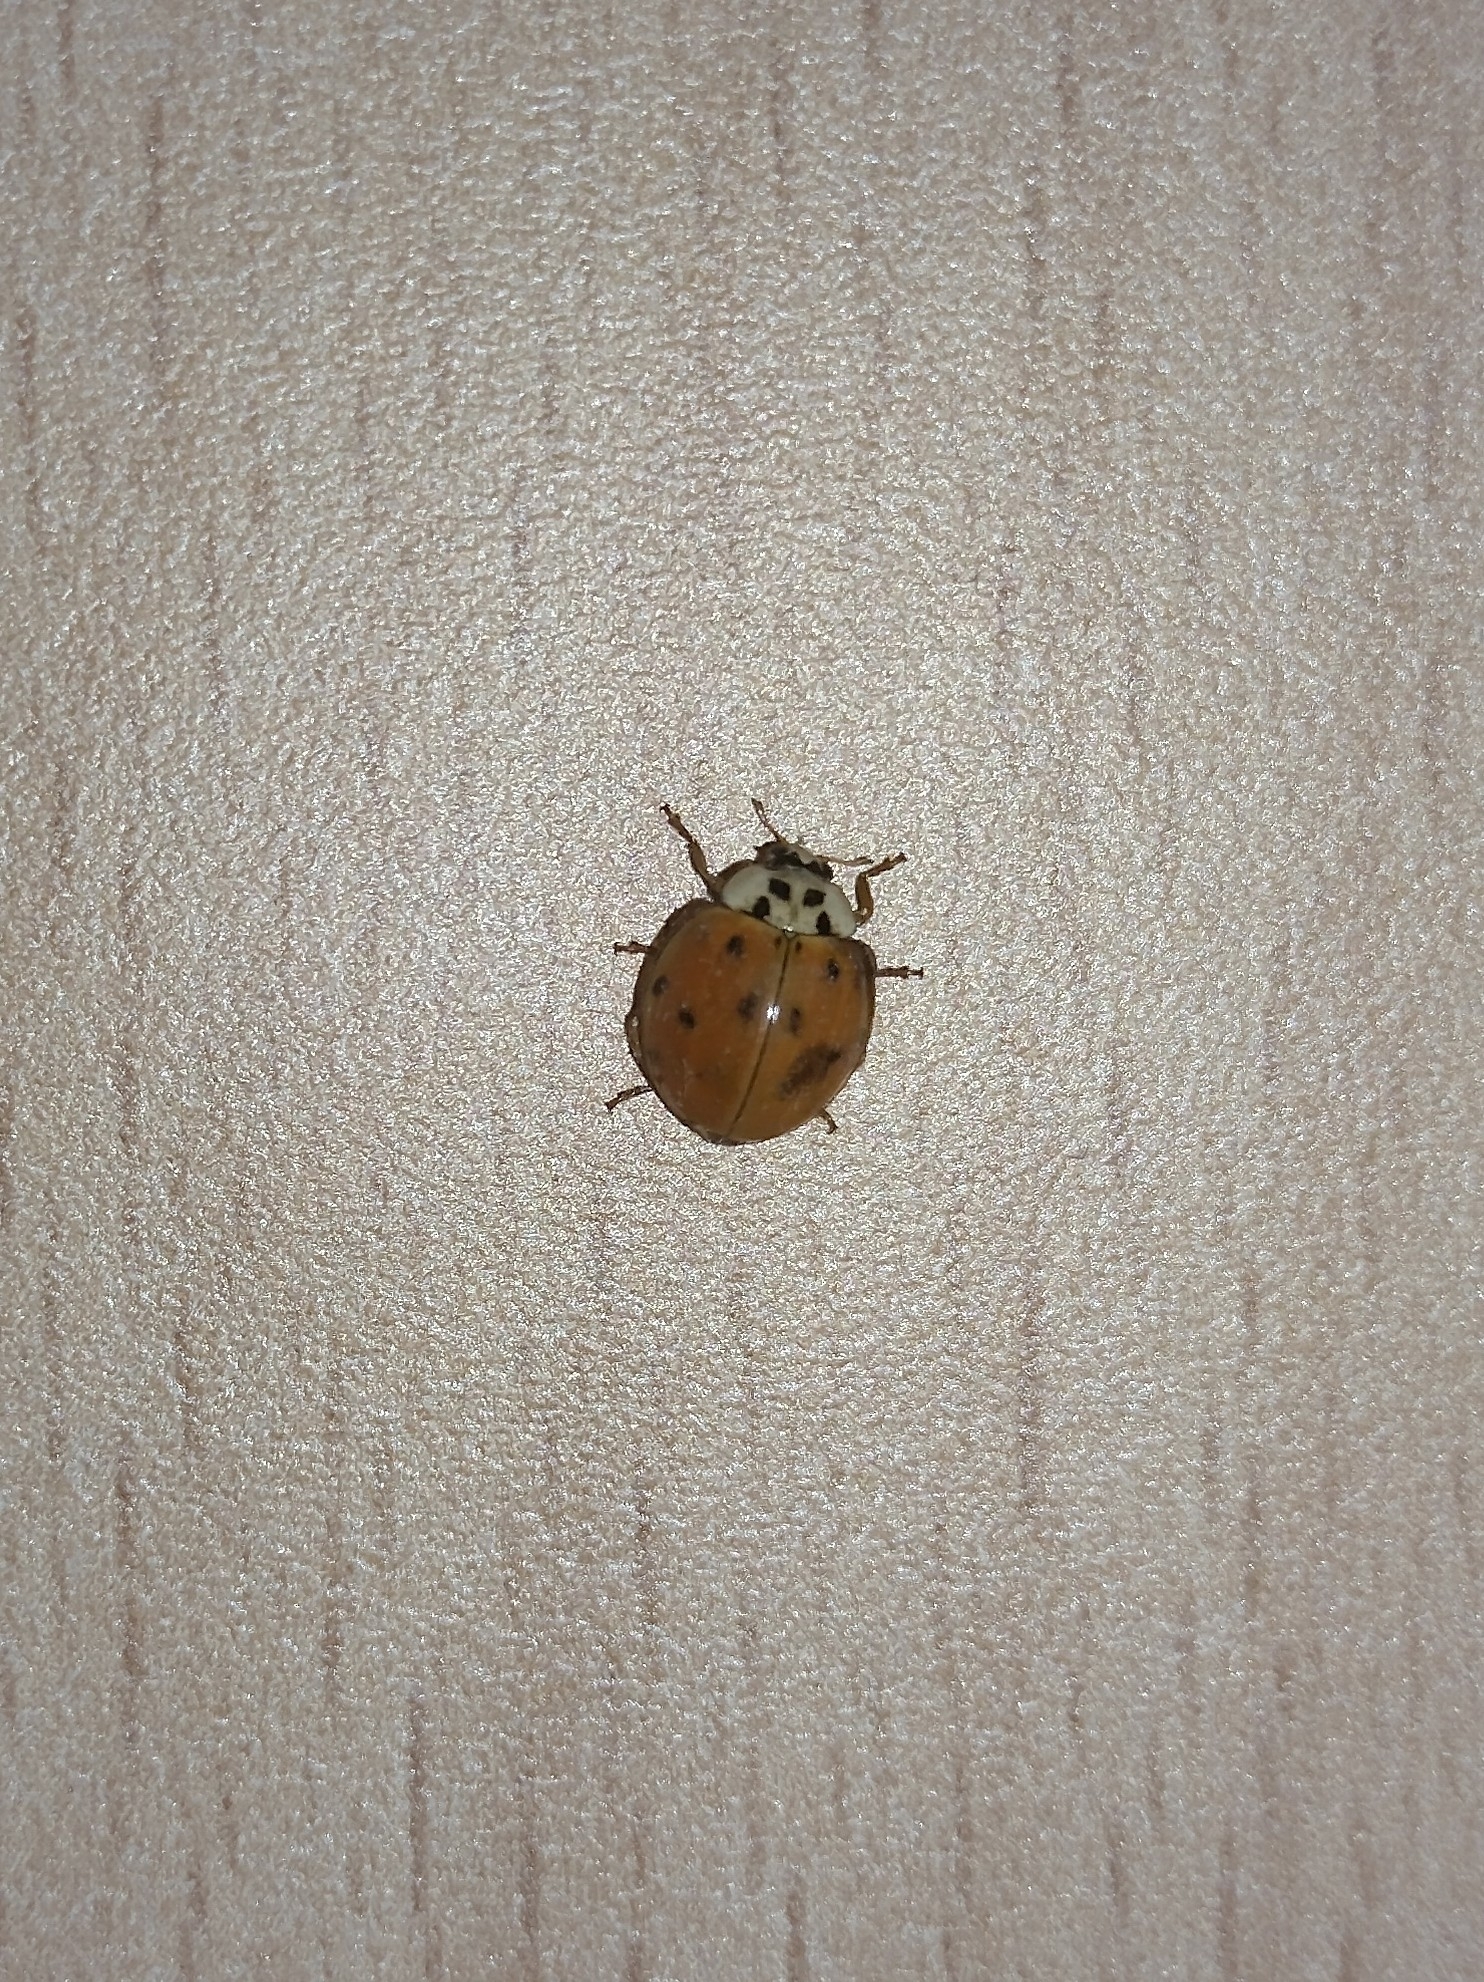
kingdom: Animalia
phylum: Arthropoda
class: Insecta
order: Coleoptera
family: Coccinellidae
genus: Harmonia
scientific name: Harmonia axyridis
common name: Harlequin ladybird
